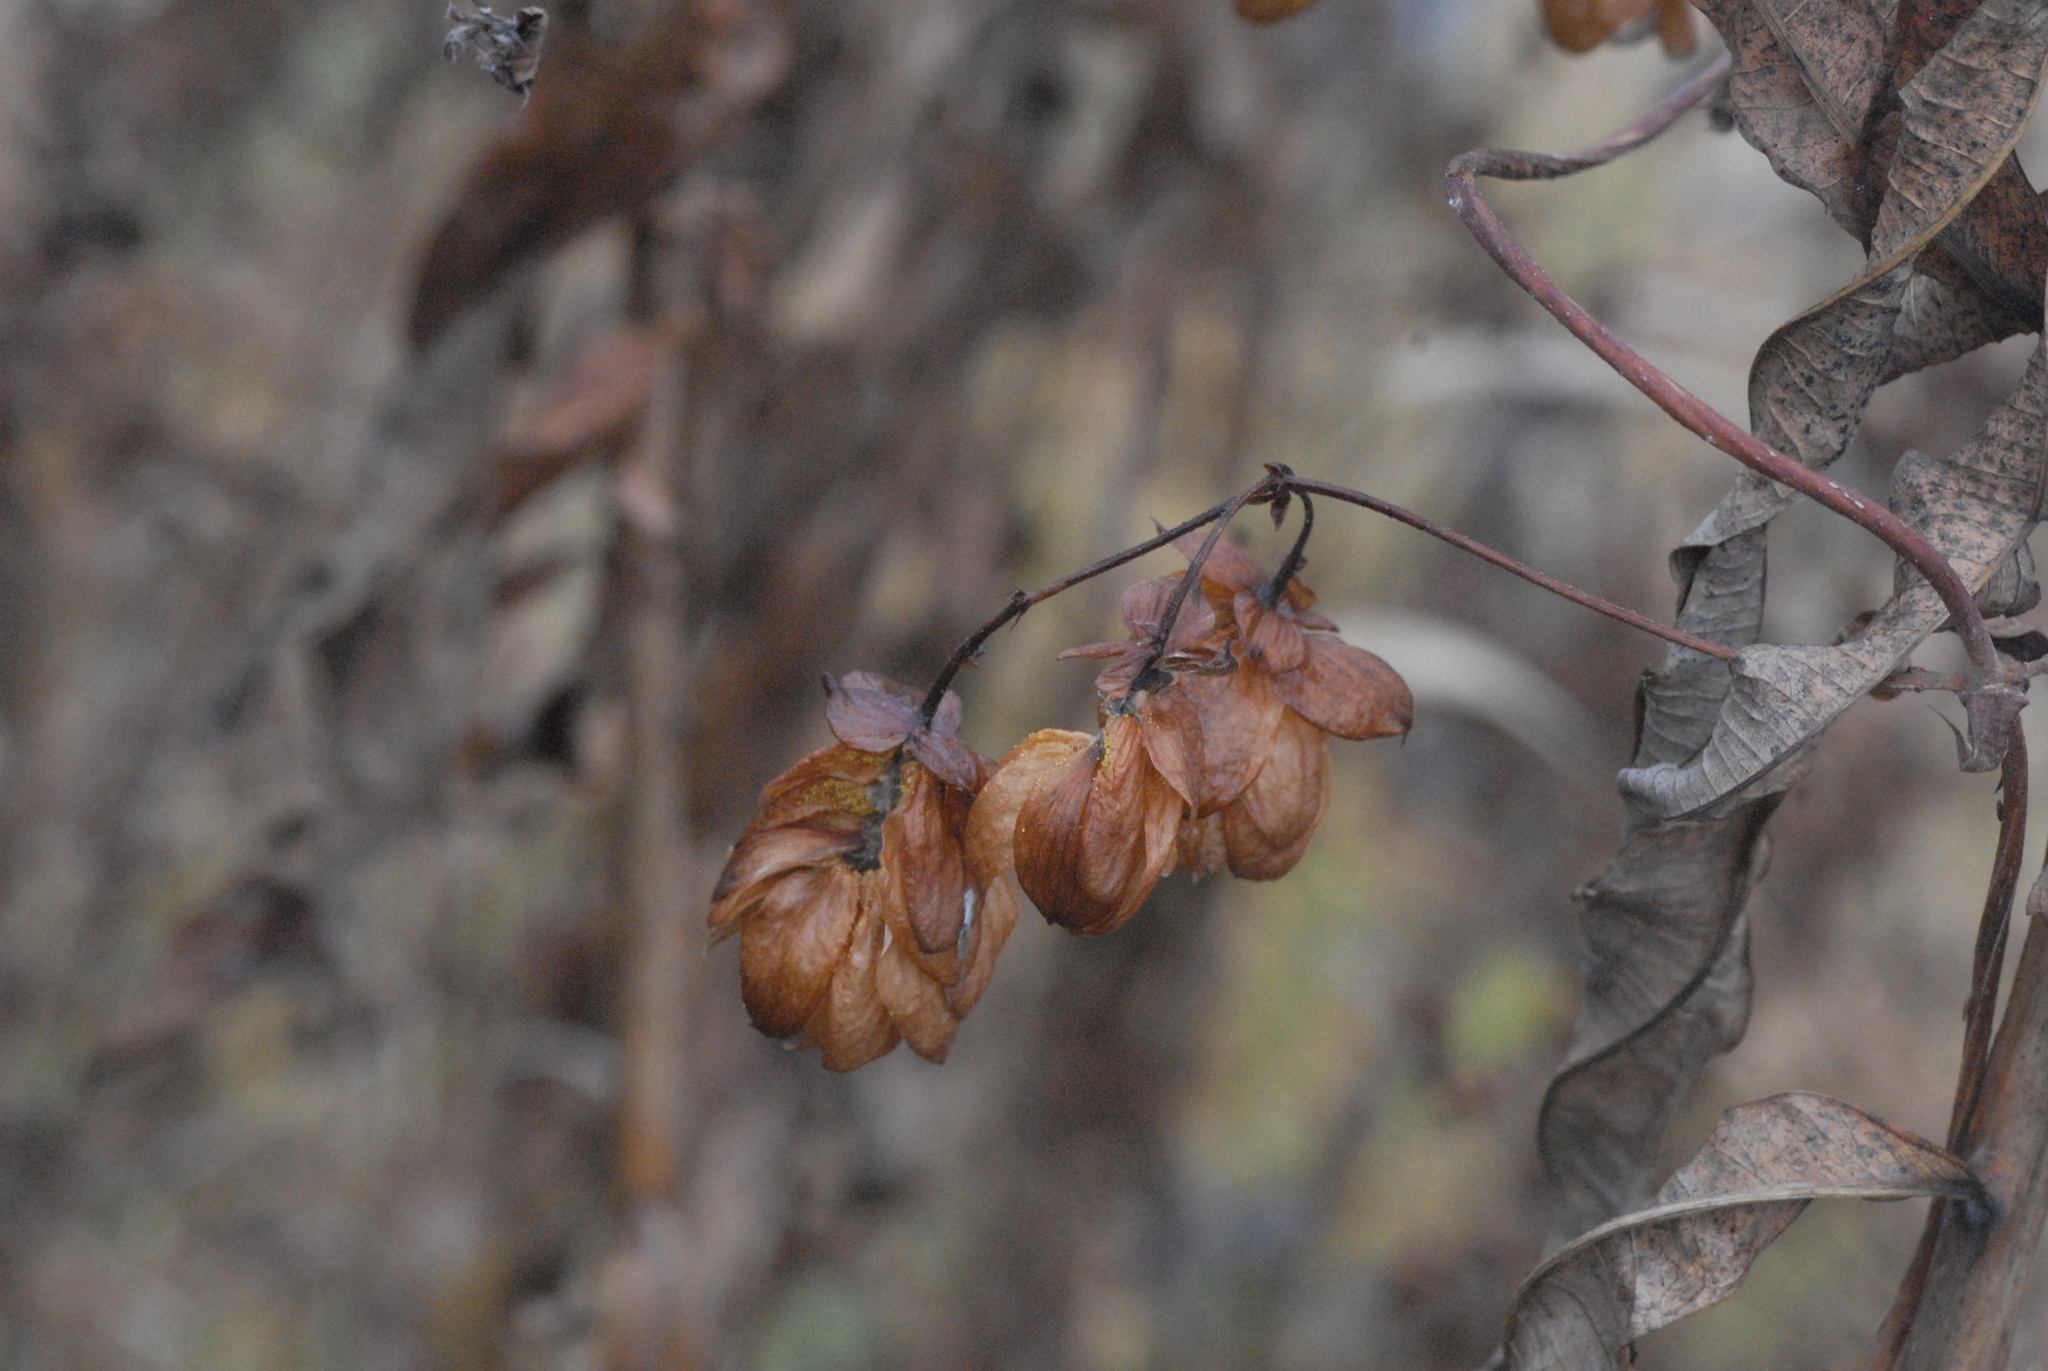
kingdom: Plantae
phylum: Tracheophyta
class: Magnoliopsida
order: Rosales
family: Cannabaceae
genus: Humulus
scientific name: Humulus lupulus
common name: Hop
